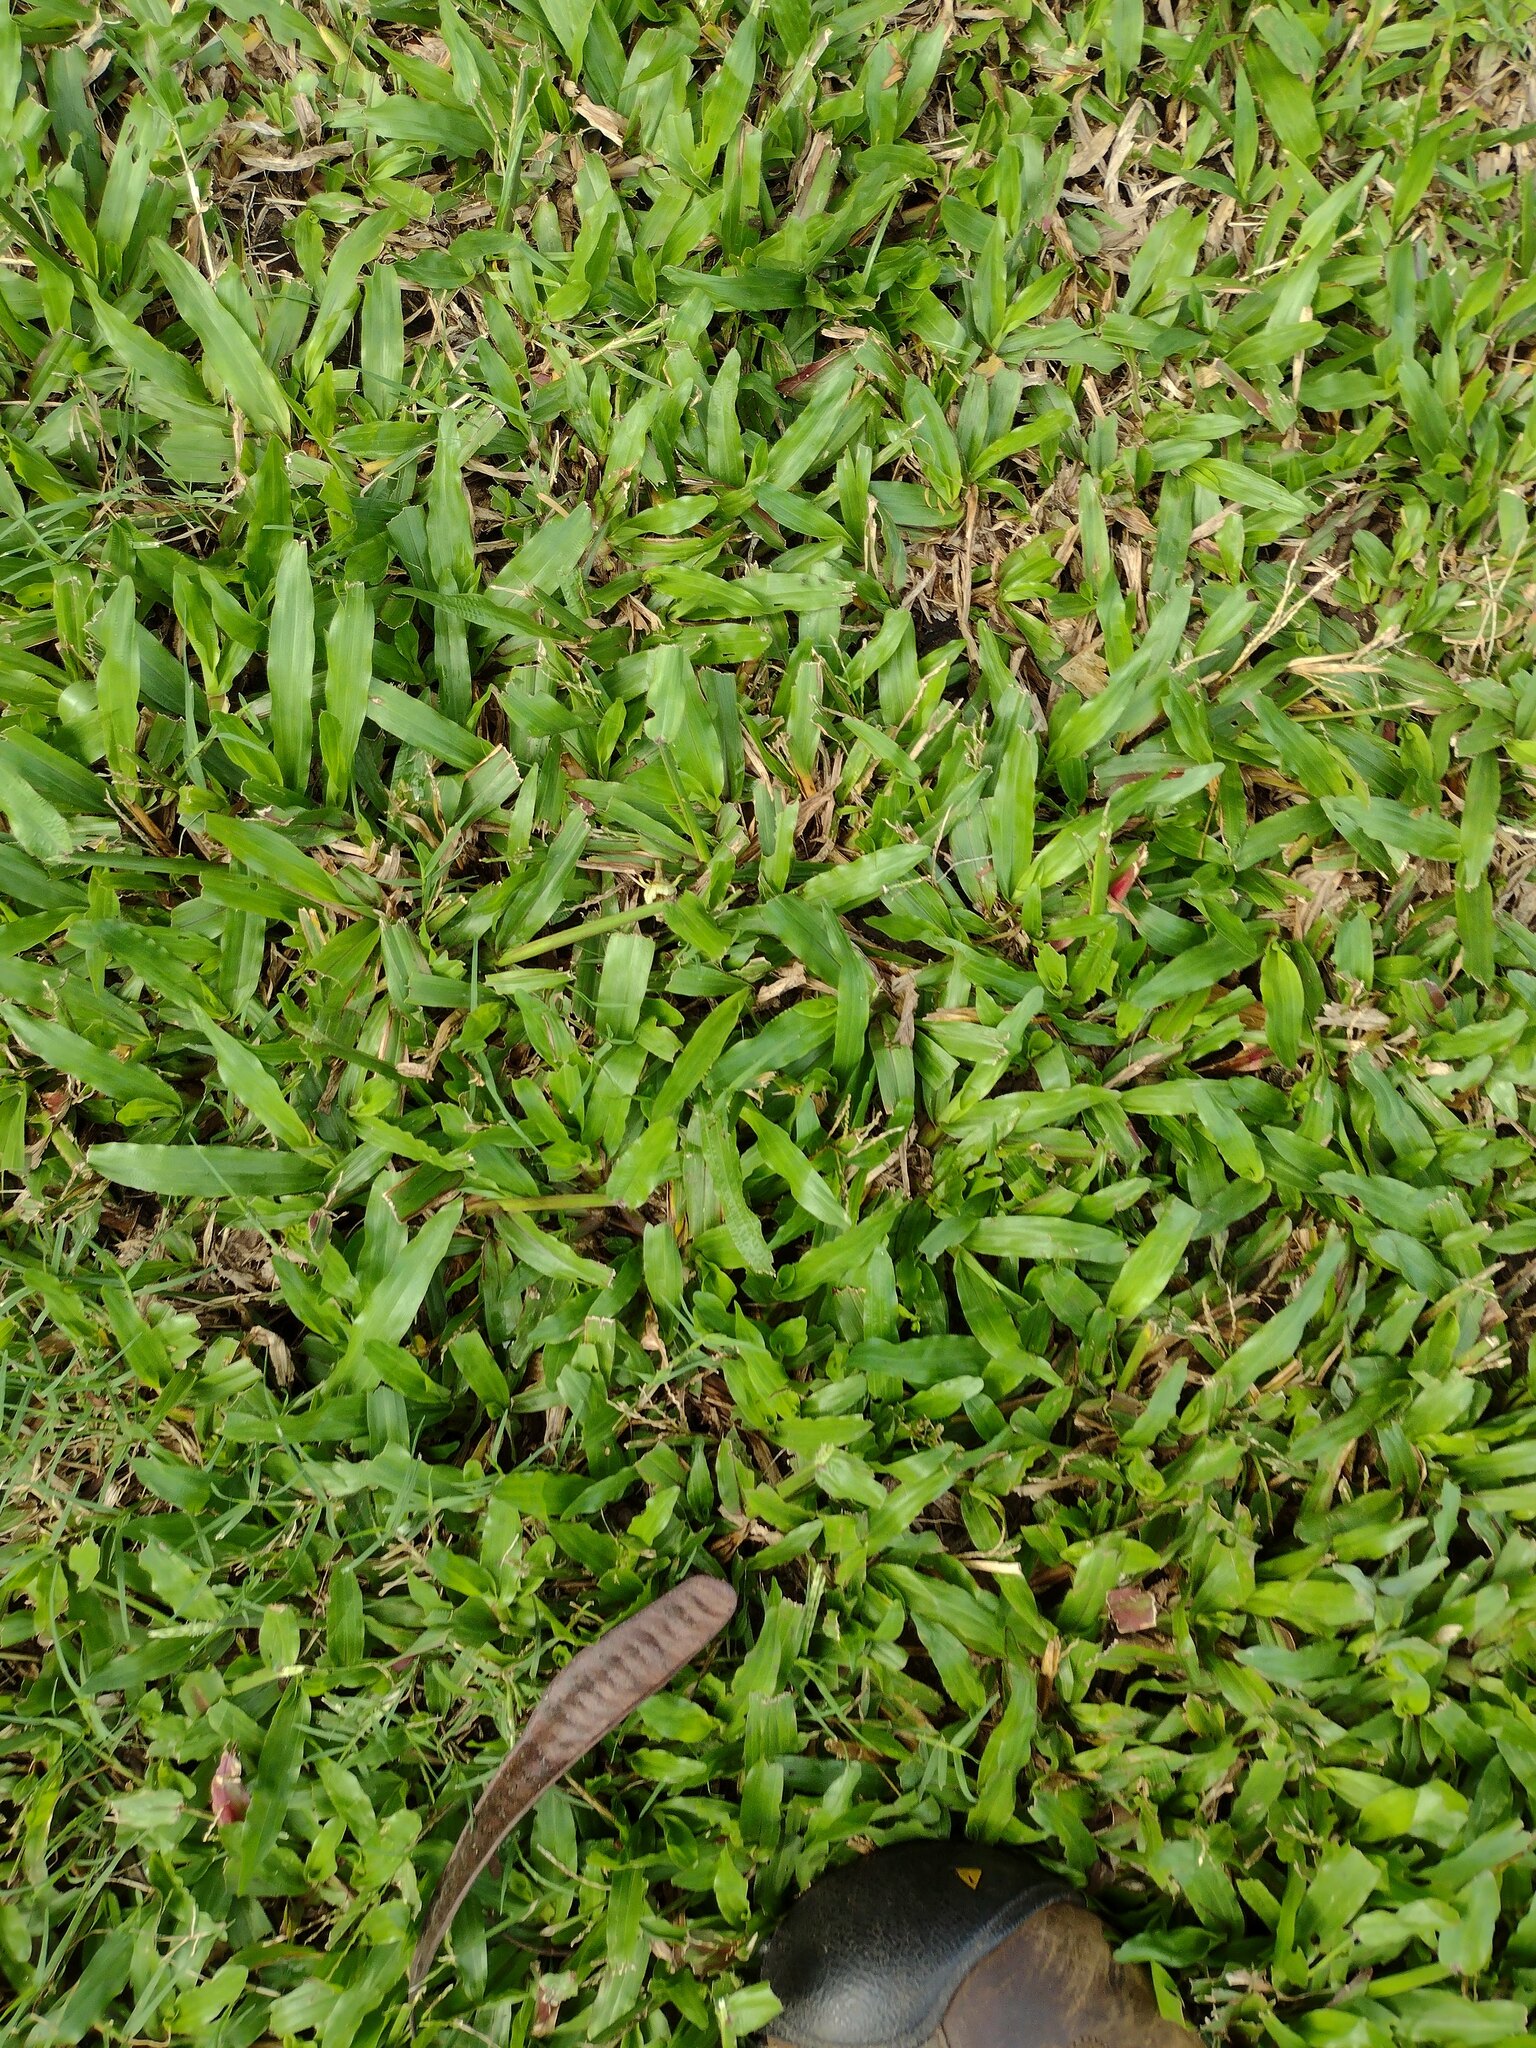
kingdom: Plantae
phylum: Tracheophyta
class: Liliopsida
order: Poales
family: Poaceae
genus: Axonopus
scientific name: Axonopus compressus
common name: American carpet grass
